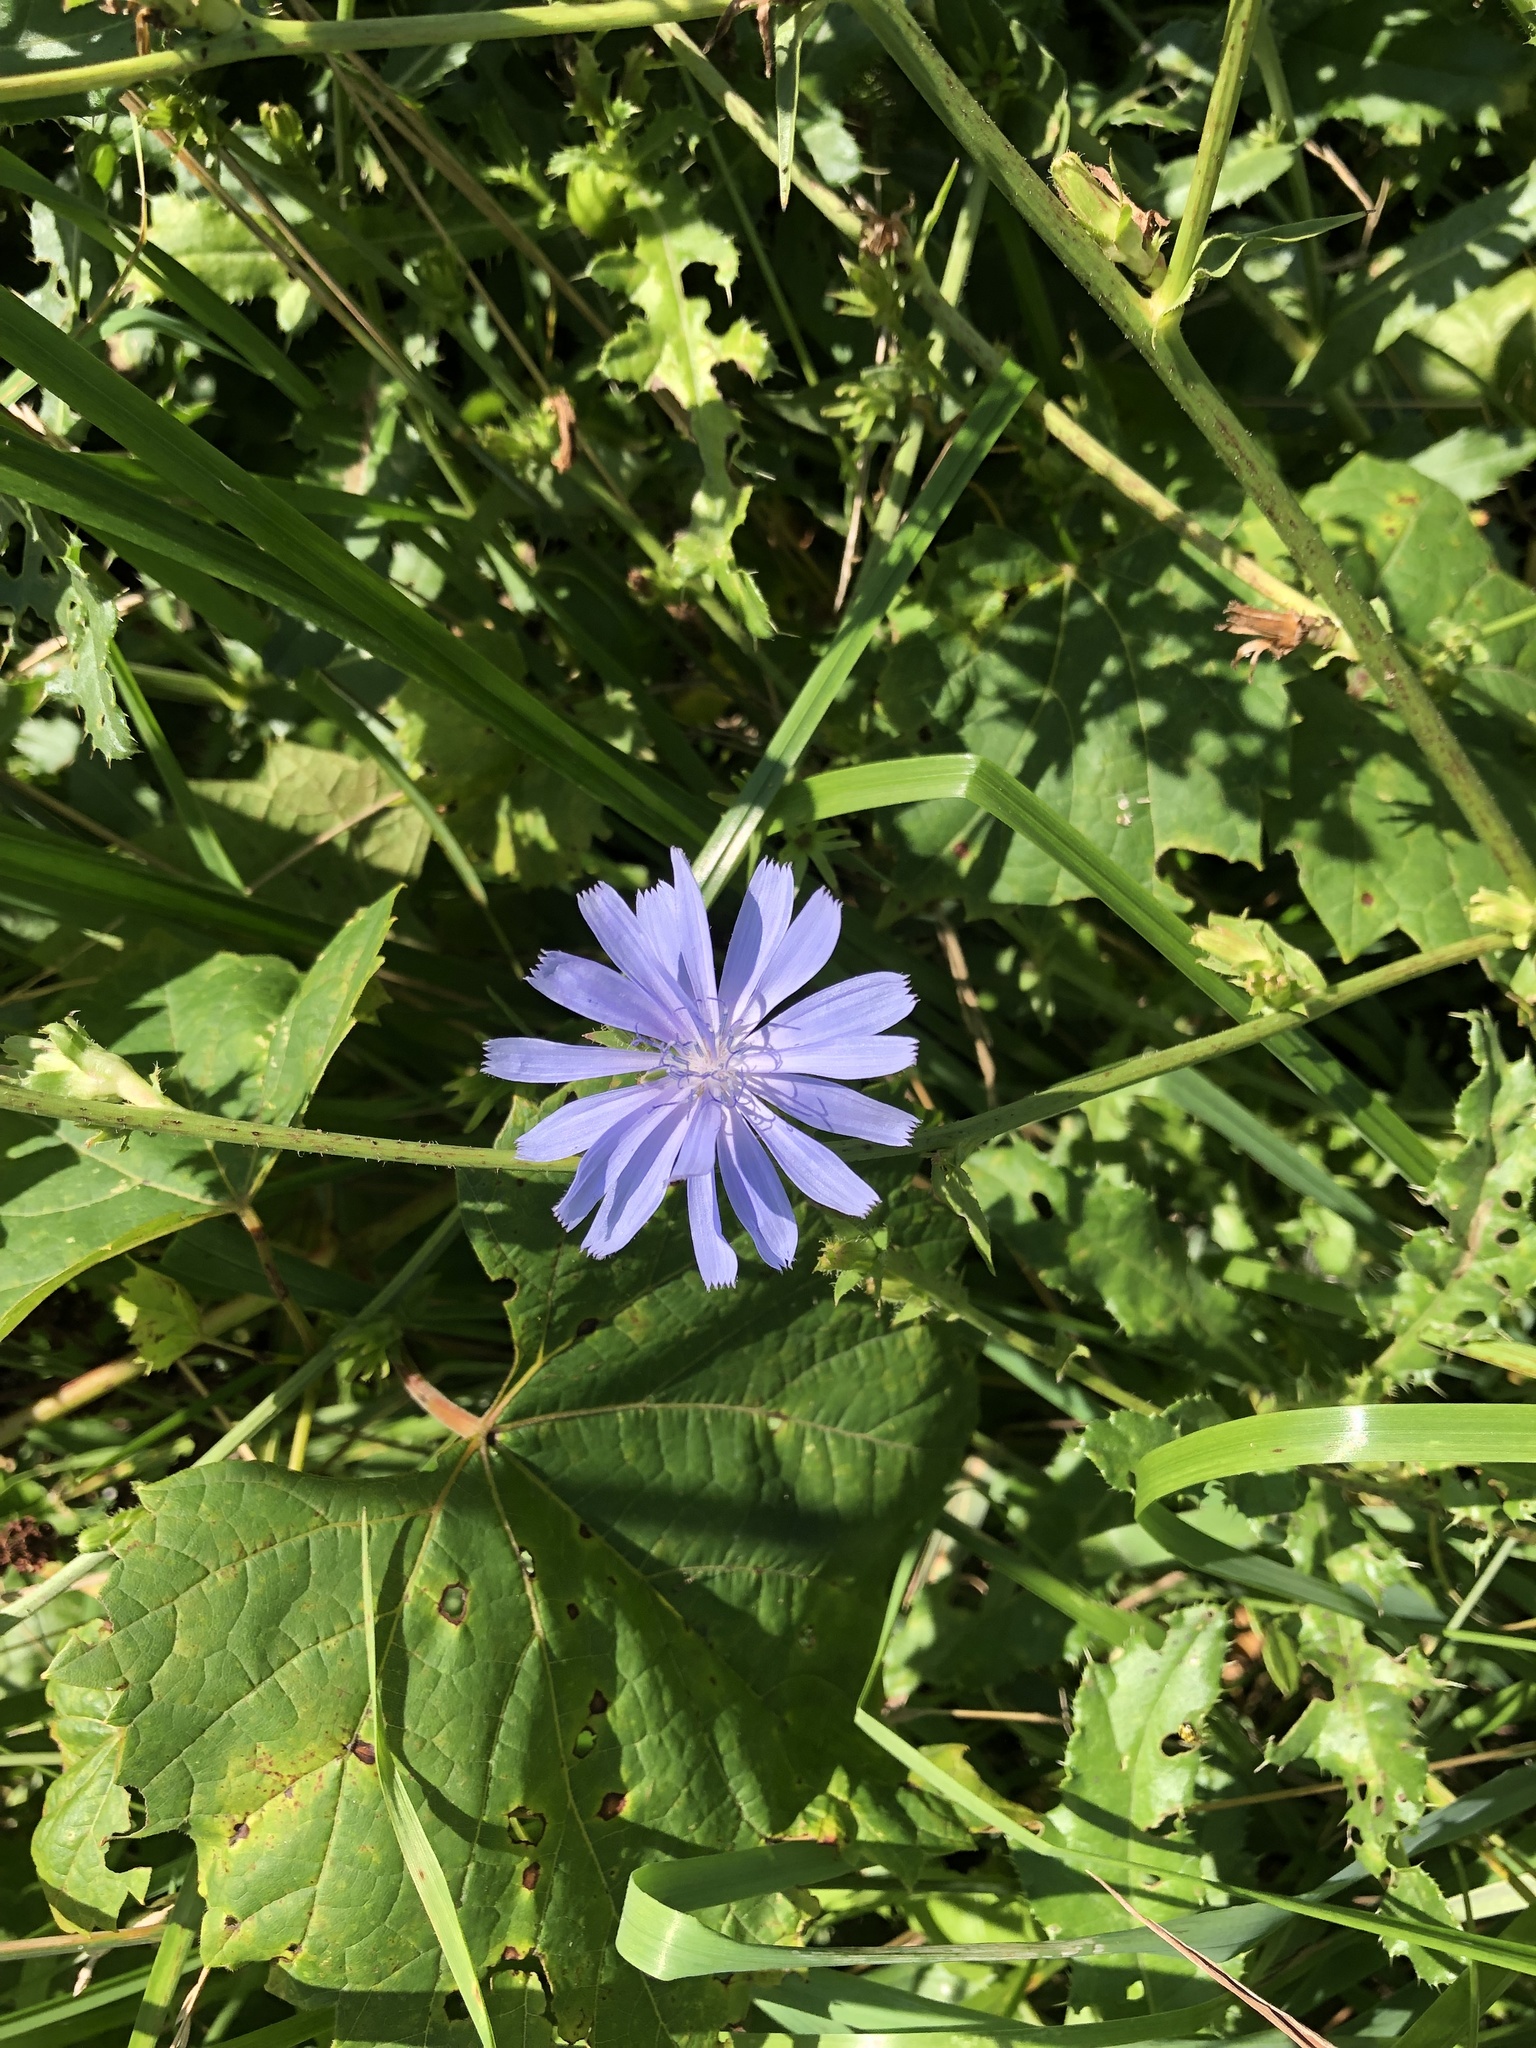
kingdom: Plantae
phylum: Tracheophyta
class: Magnoliopsida
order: Asterales
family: Asteraceae
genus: Cichorium
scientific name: Cichorium intybus
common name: Chicory
